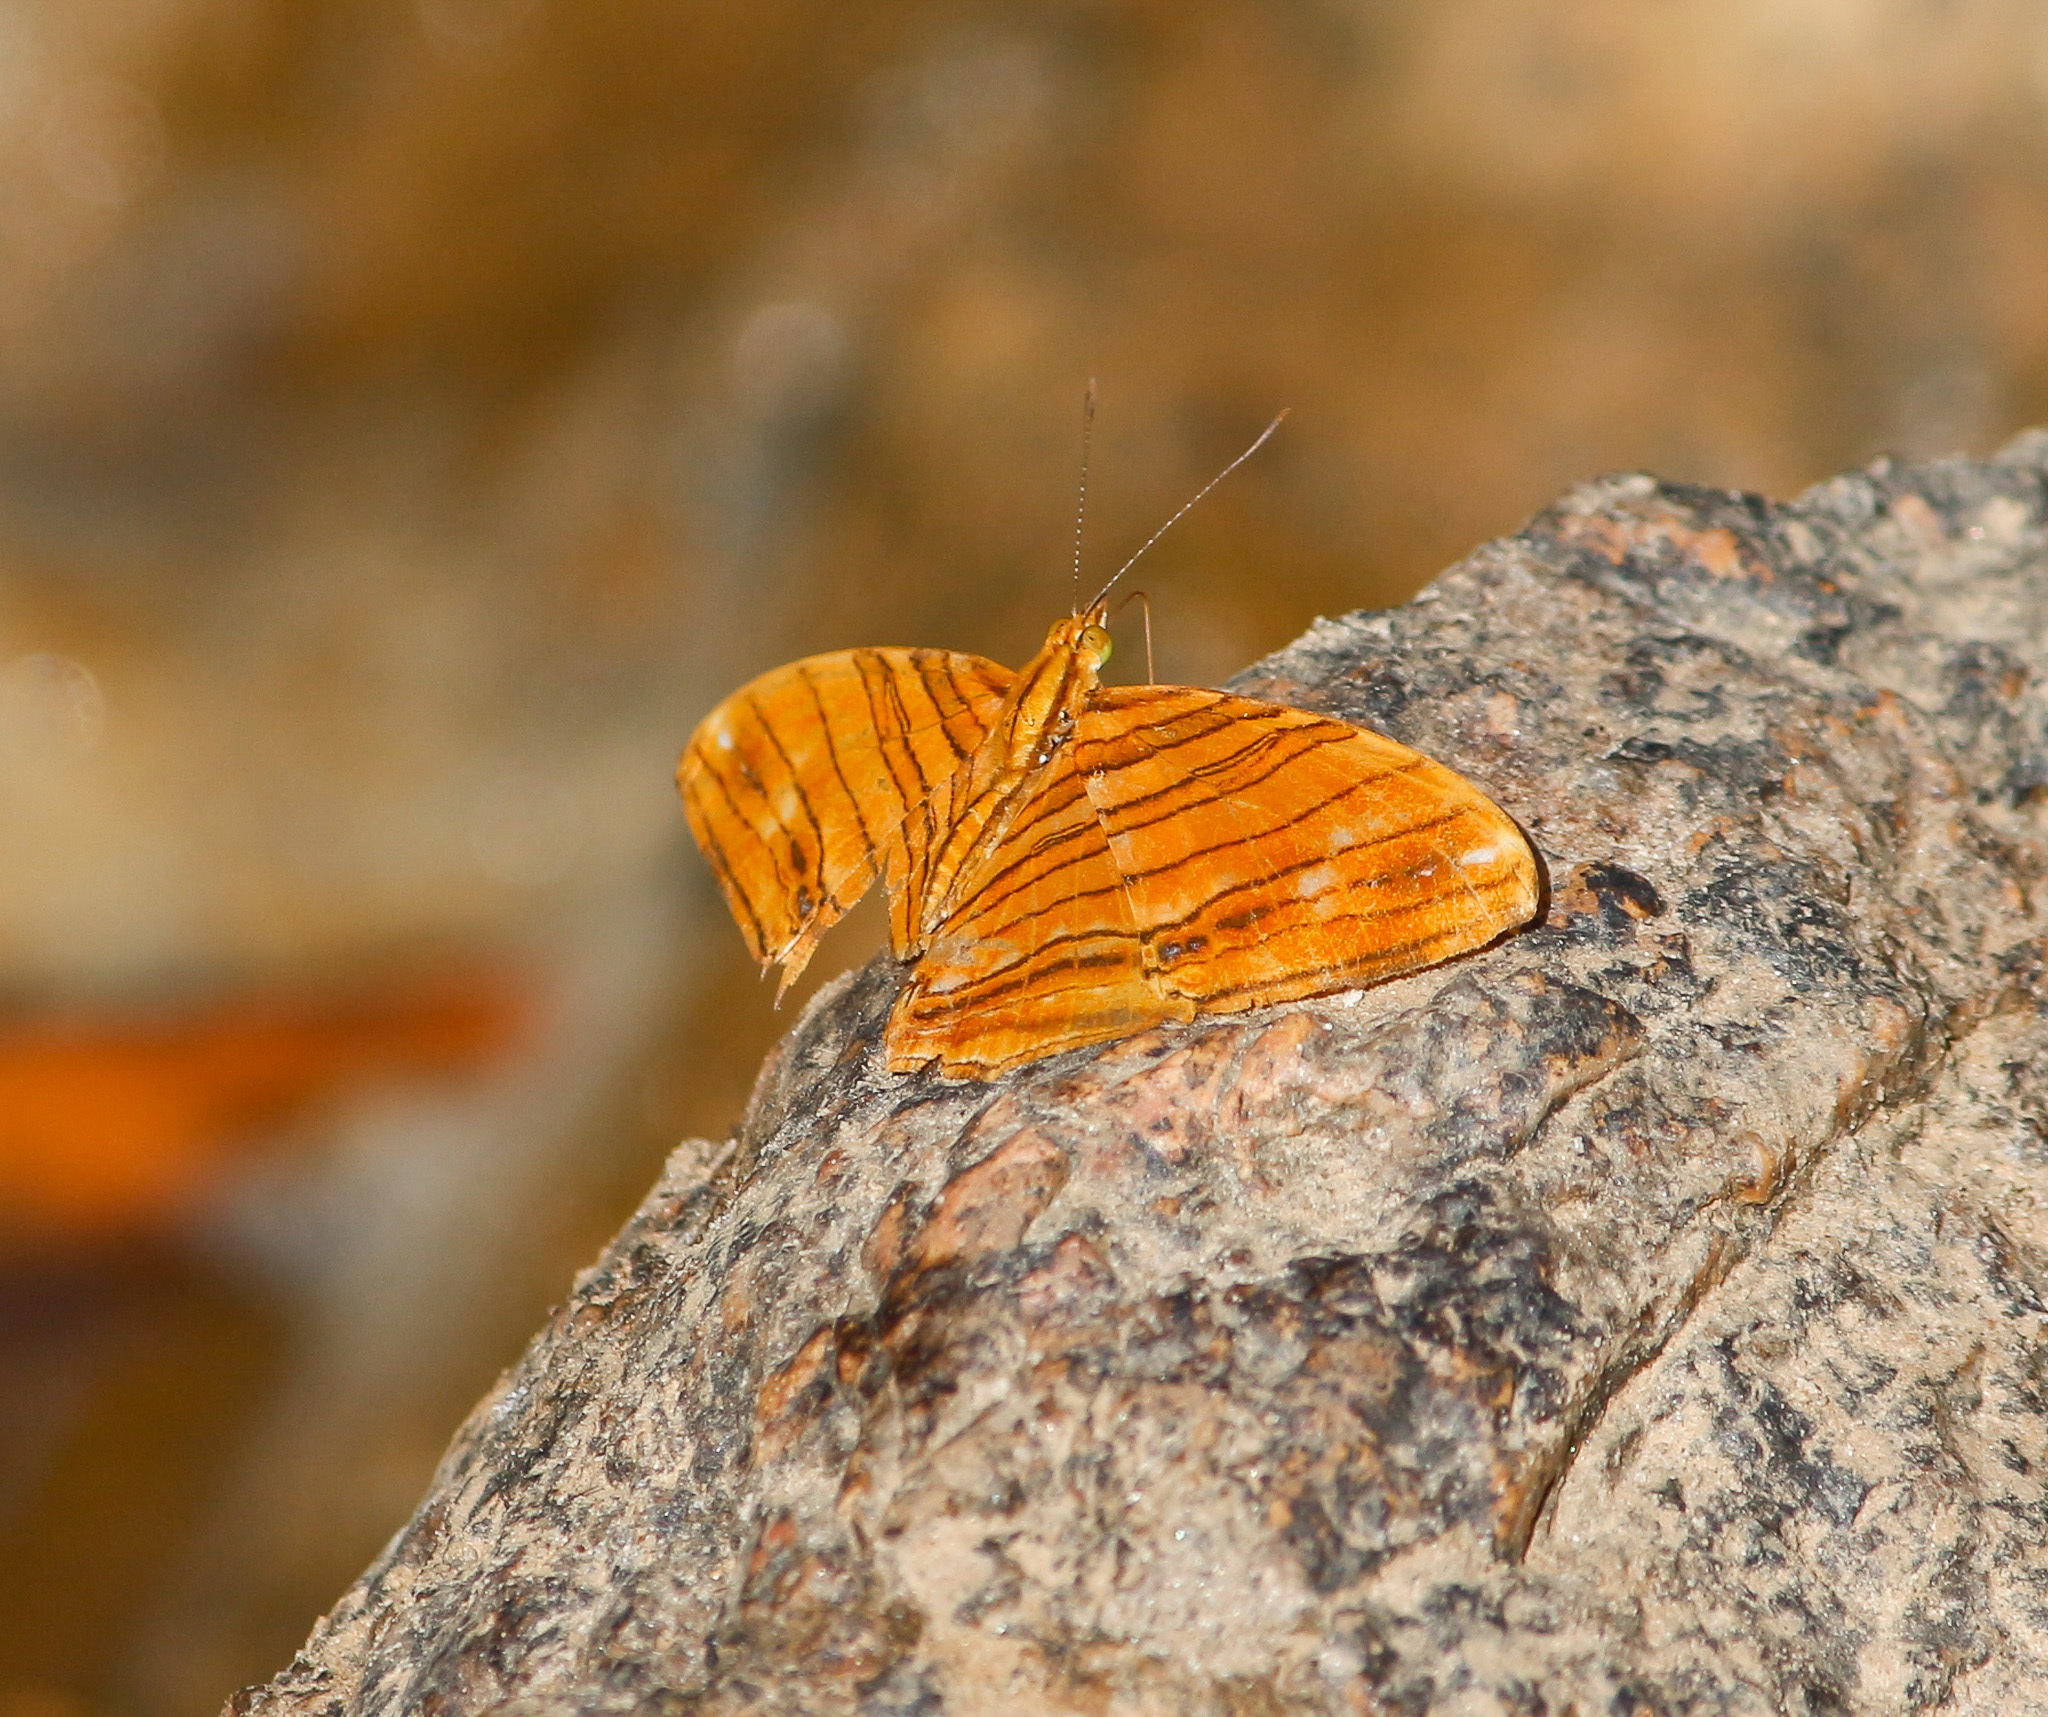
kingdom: Animalia
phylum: Arthropoda
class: Insecta
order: Lepidoptera
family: Nymphalidae
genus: Chersonesia
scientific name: Chersonesia risa
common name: Common maplet
